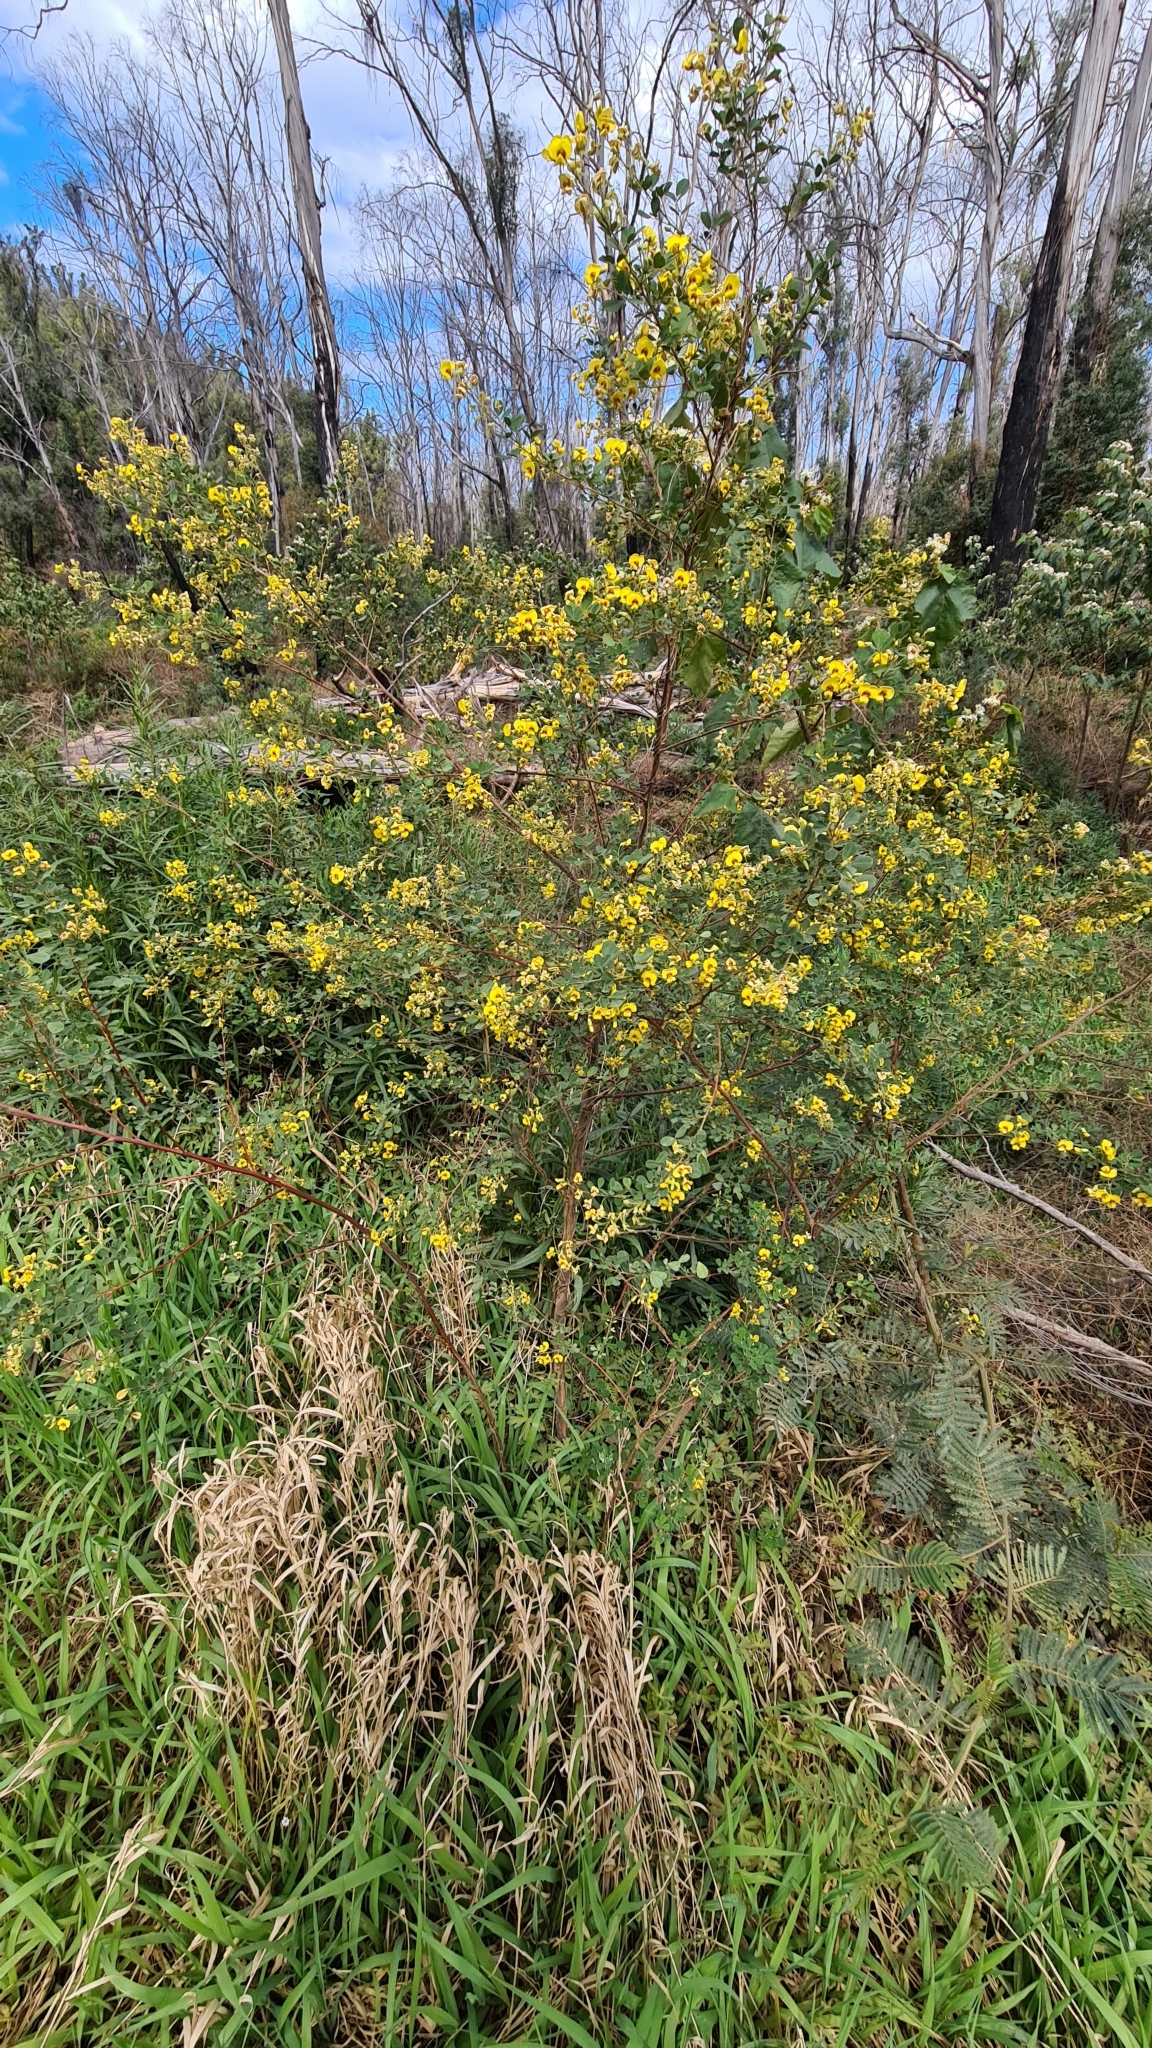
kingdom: Plantae
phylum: Tracheophyta
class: Magnoliopsida
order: Fabales
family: Fabaceae
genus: Goodia
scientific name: Goodia lotifolia
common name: Cloverleaf-poison
